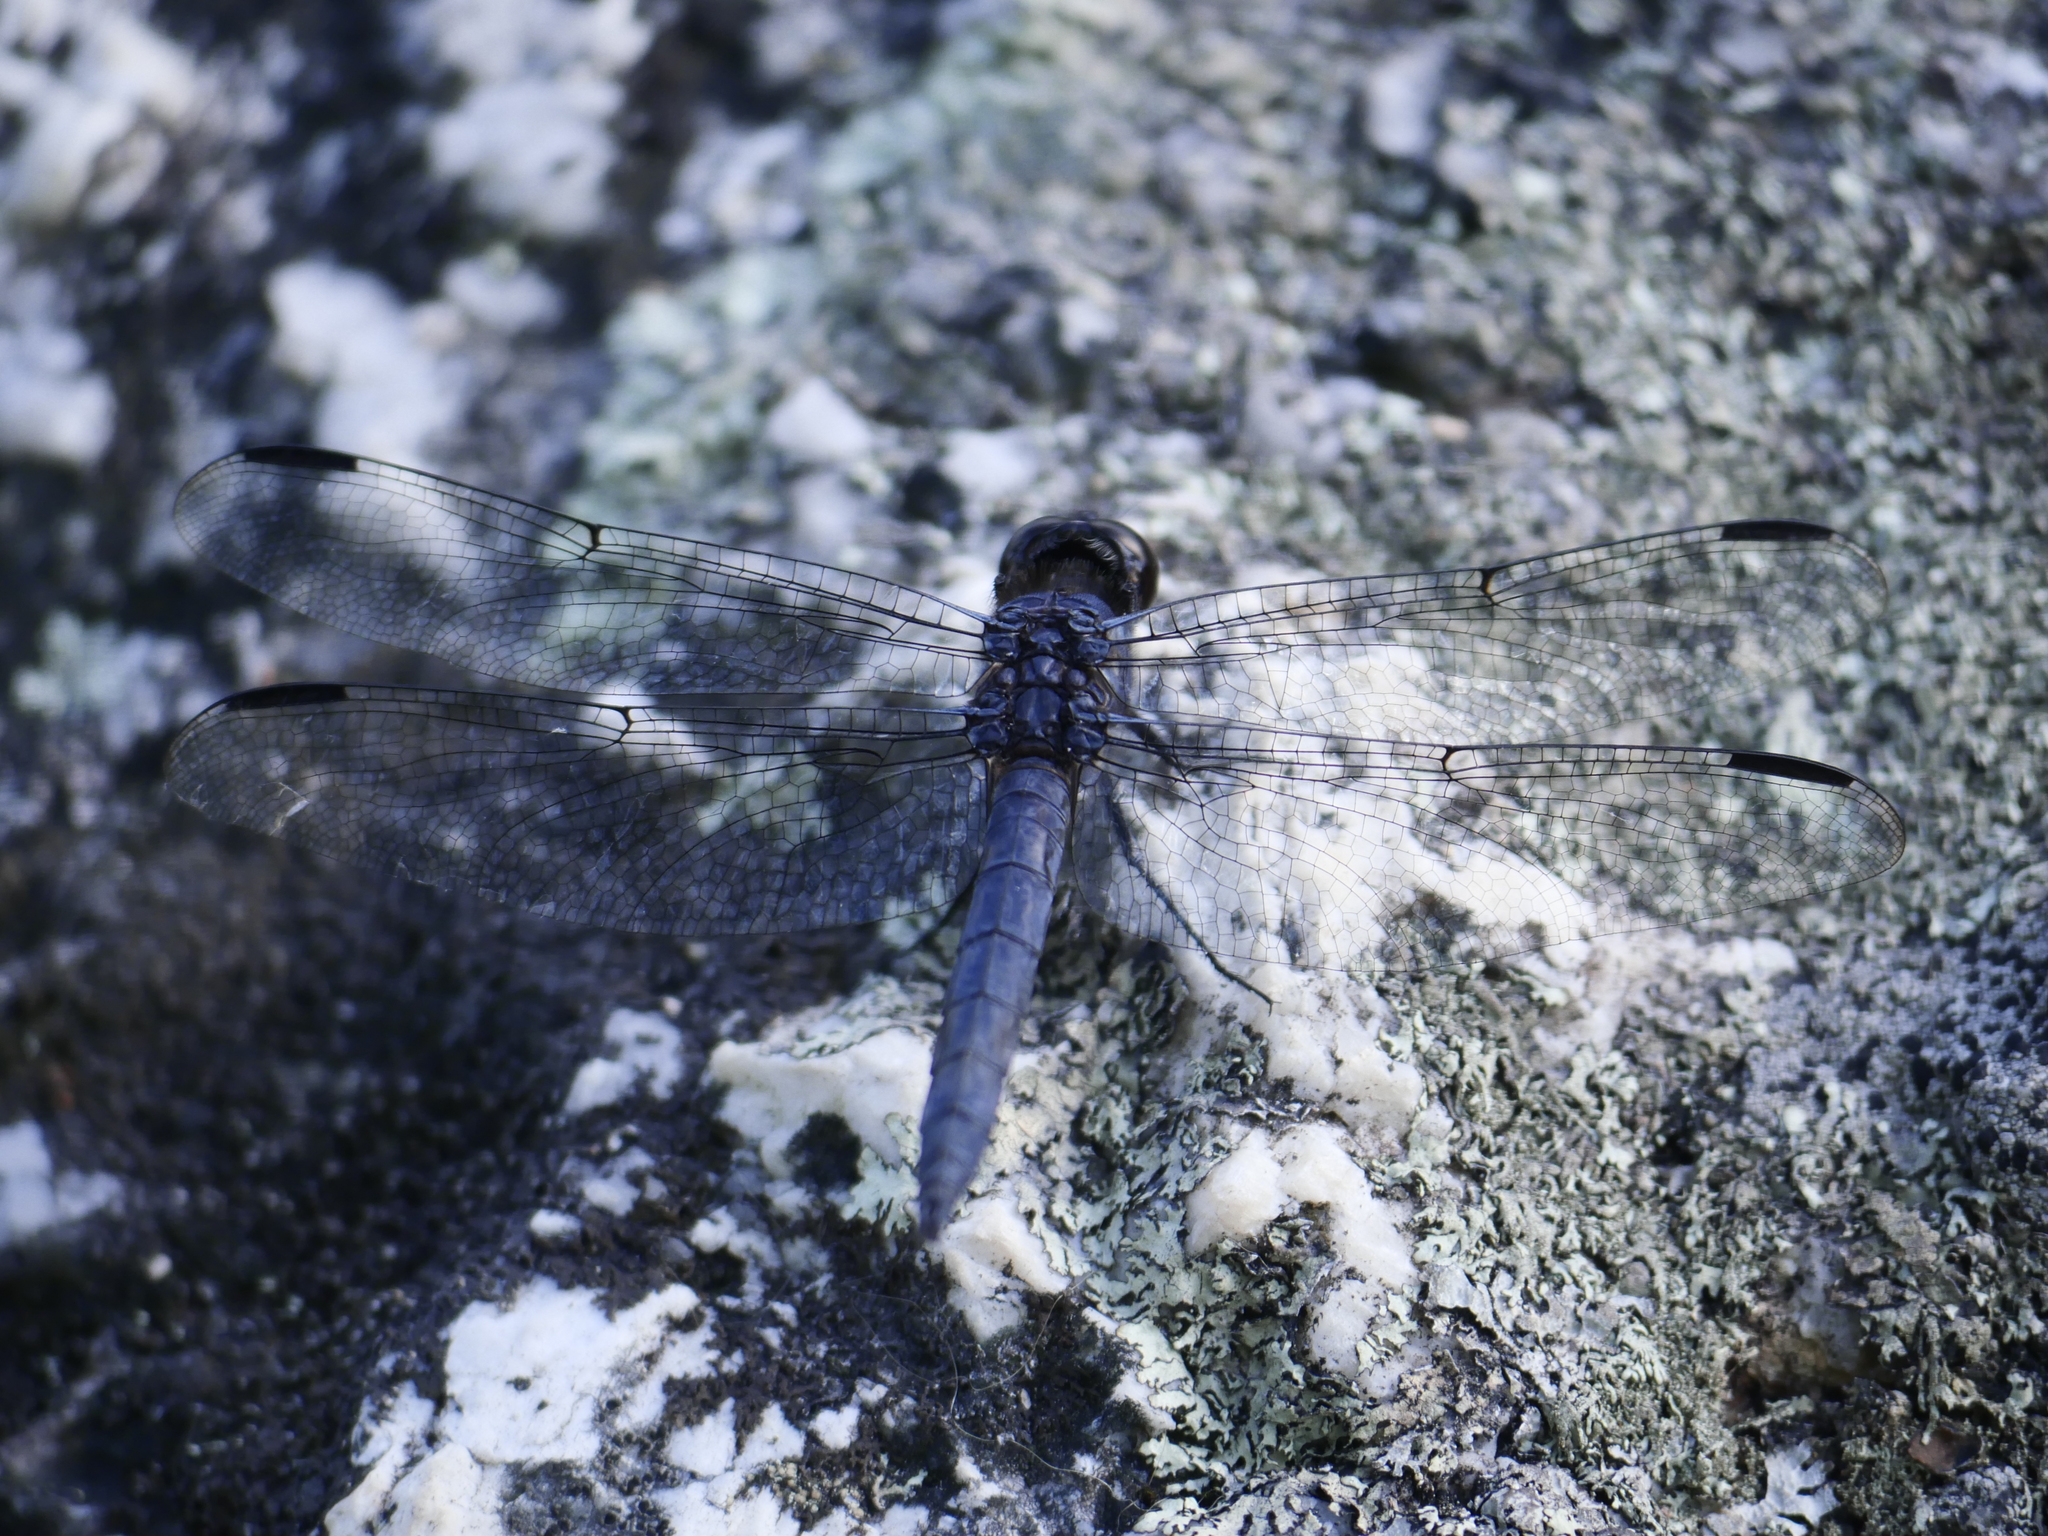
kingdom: Animalia
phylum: Arthropoda
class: Insecta
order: Odonata
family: Libellulidae
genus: Libellula
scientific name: Libellula incesta
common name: Slaty skimmer
